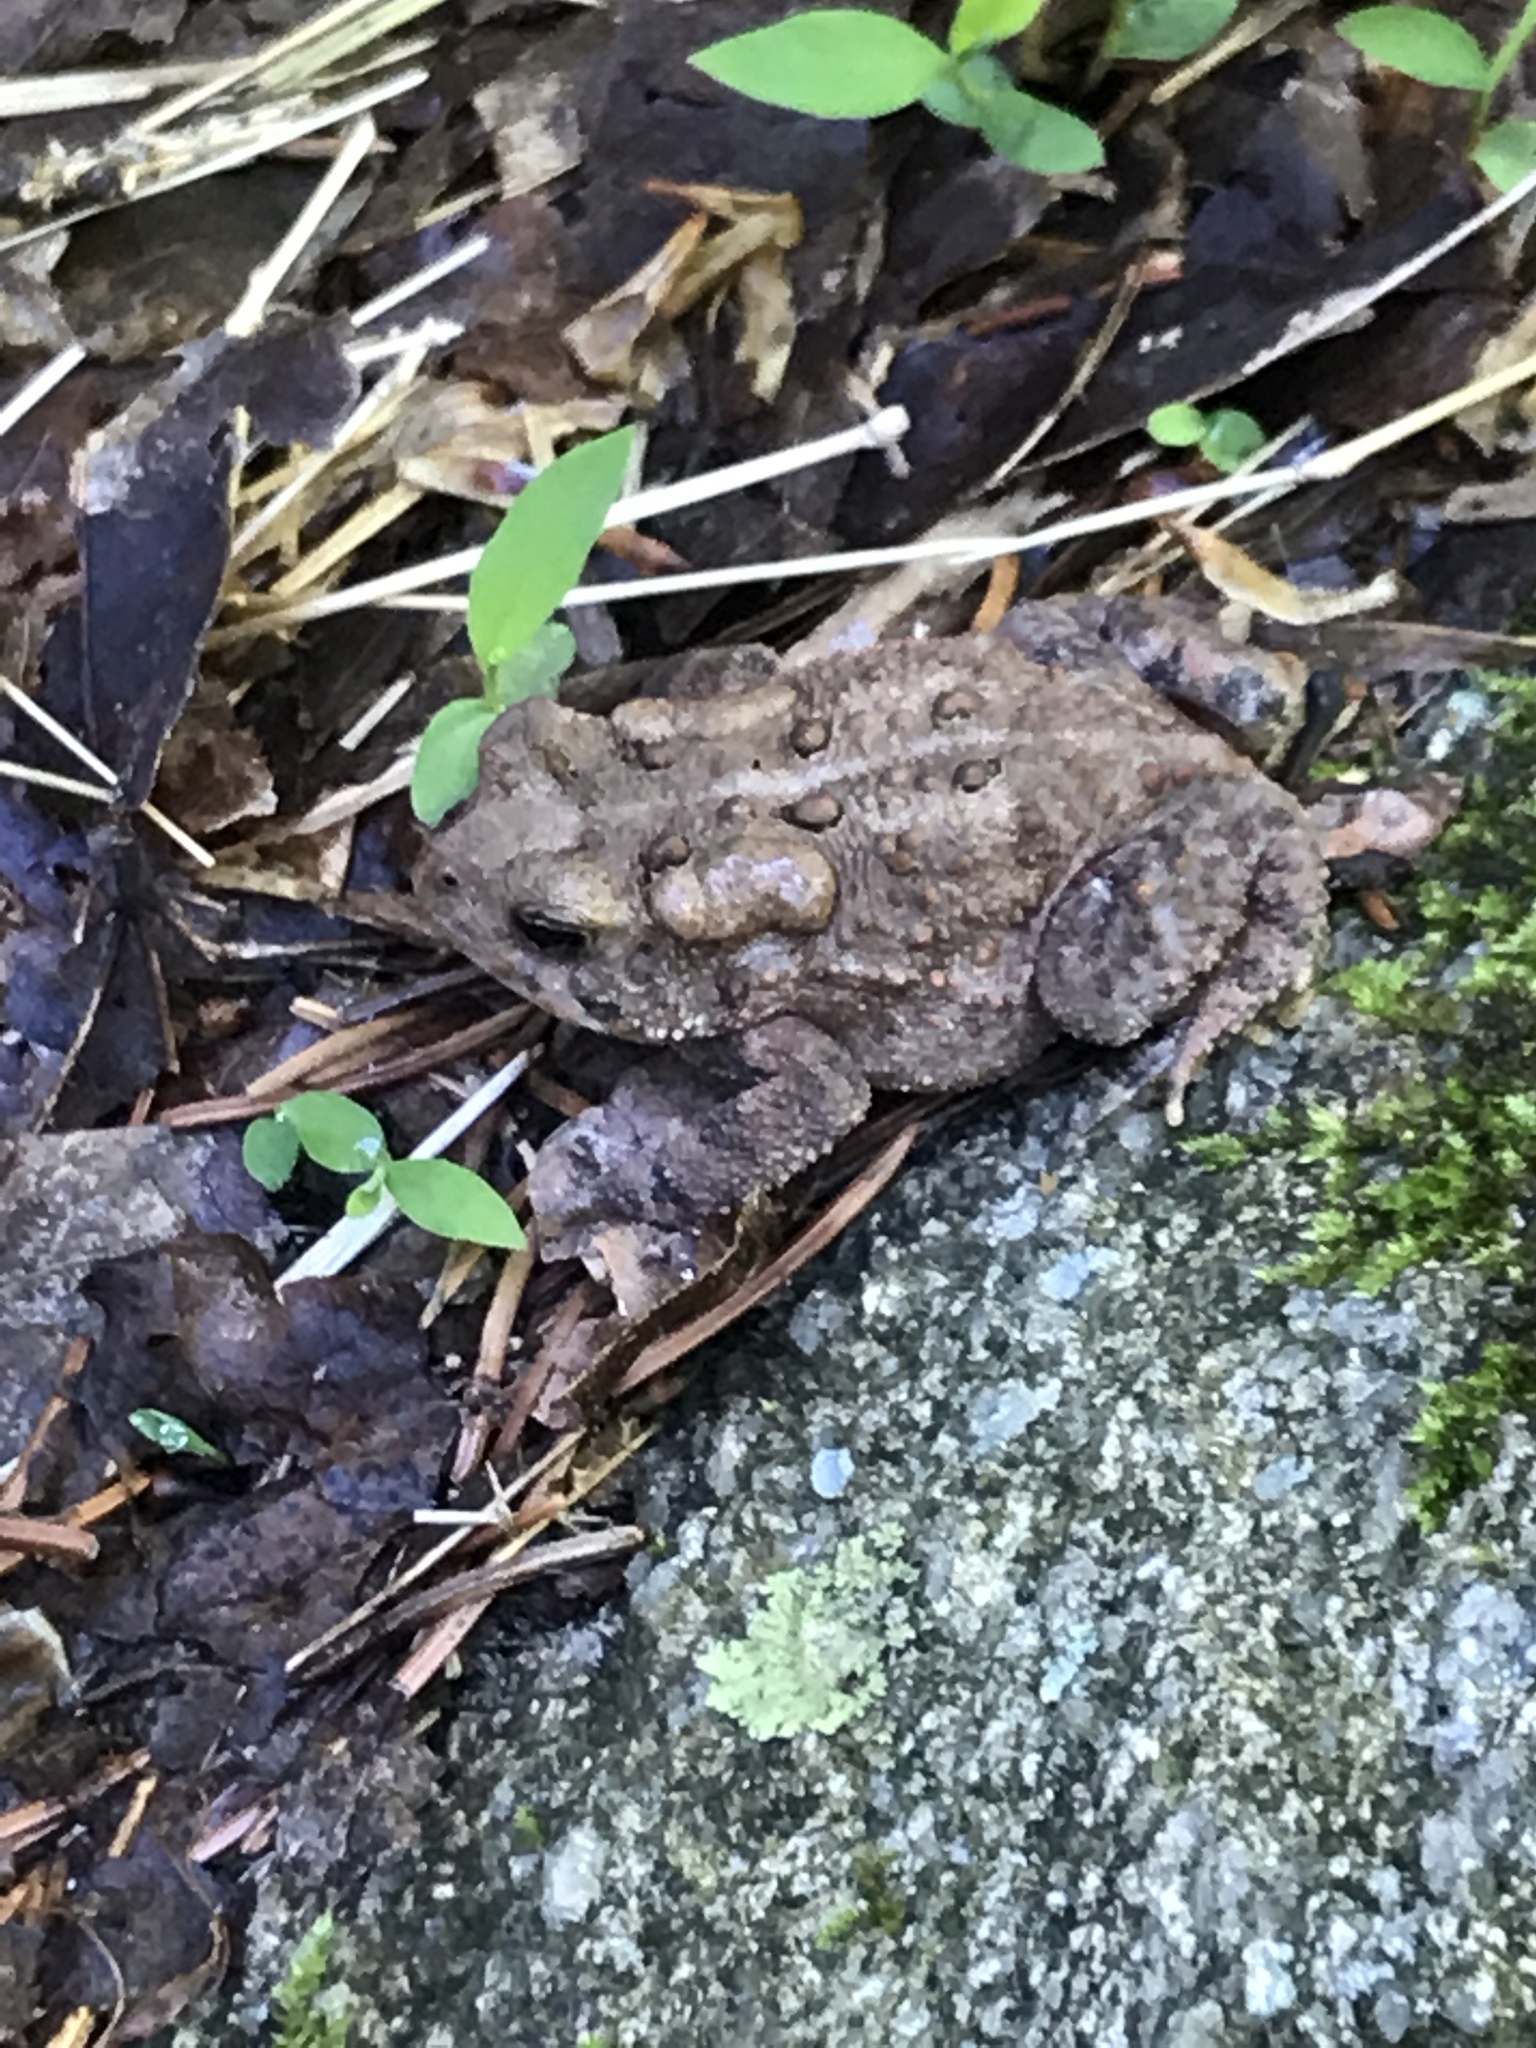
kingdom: Animalia
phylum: Chordata
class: Amphibia
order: Anura
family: Bufonidae
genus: Anaxyrus
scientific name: Anaxyrus americanus
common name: American toad
